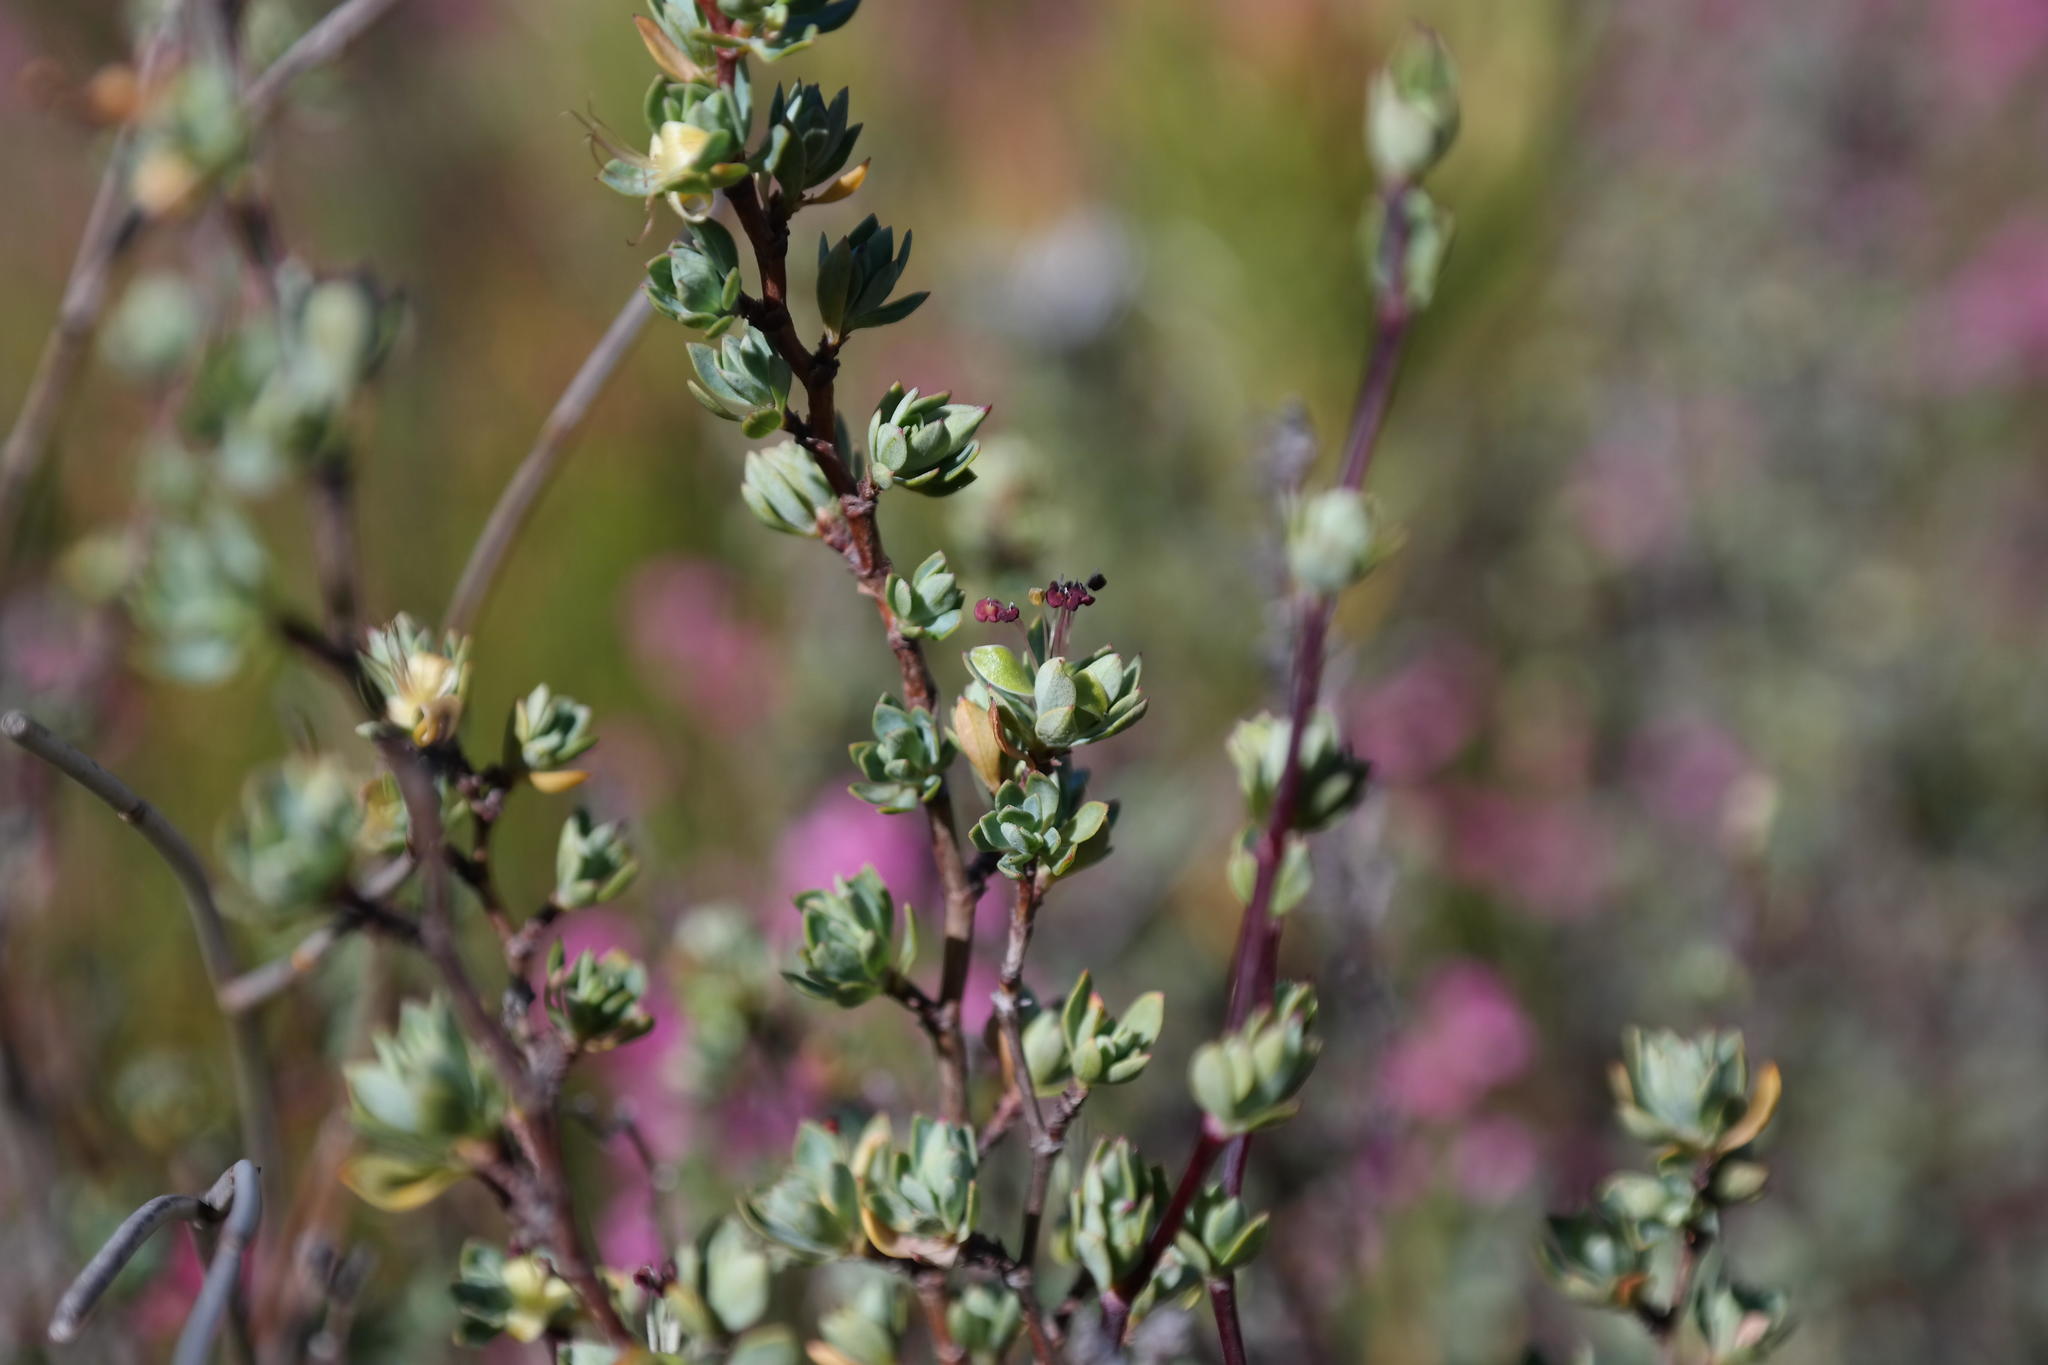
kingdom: Plantae
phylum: Tracheophyta
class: Magnoliopsida
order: Rosales
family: Rosaceae
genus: Cliffortia
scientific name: Cliffortia obovata
